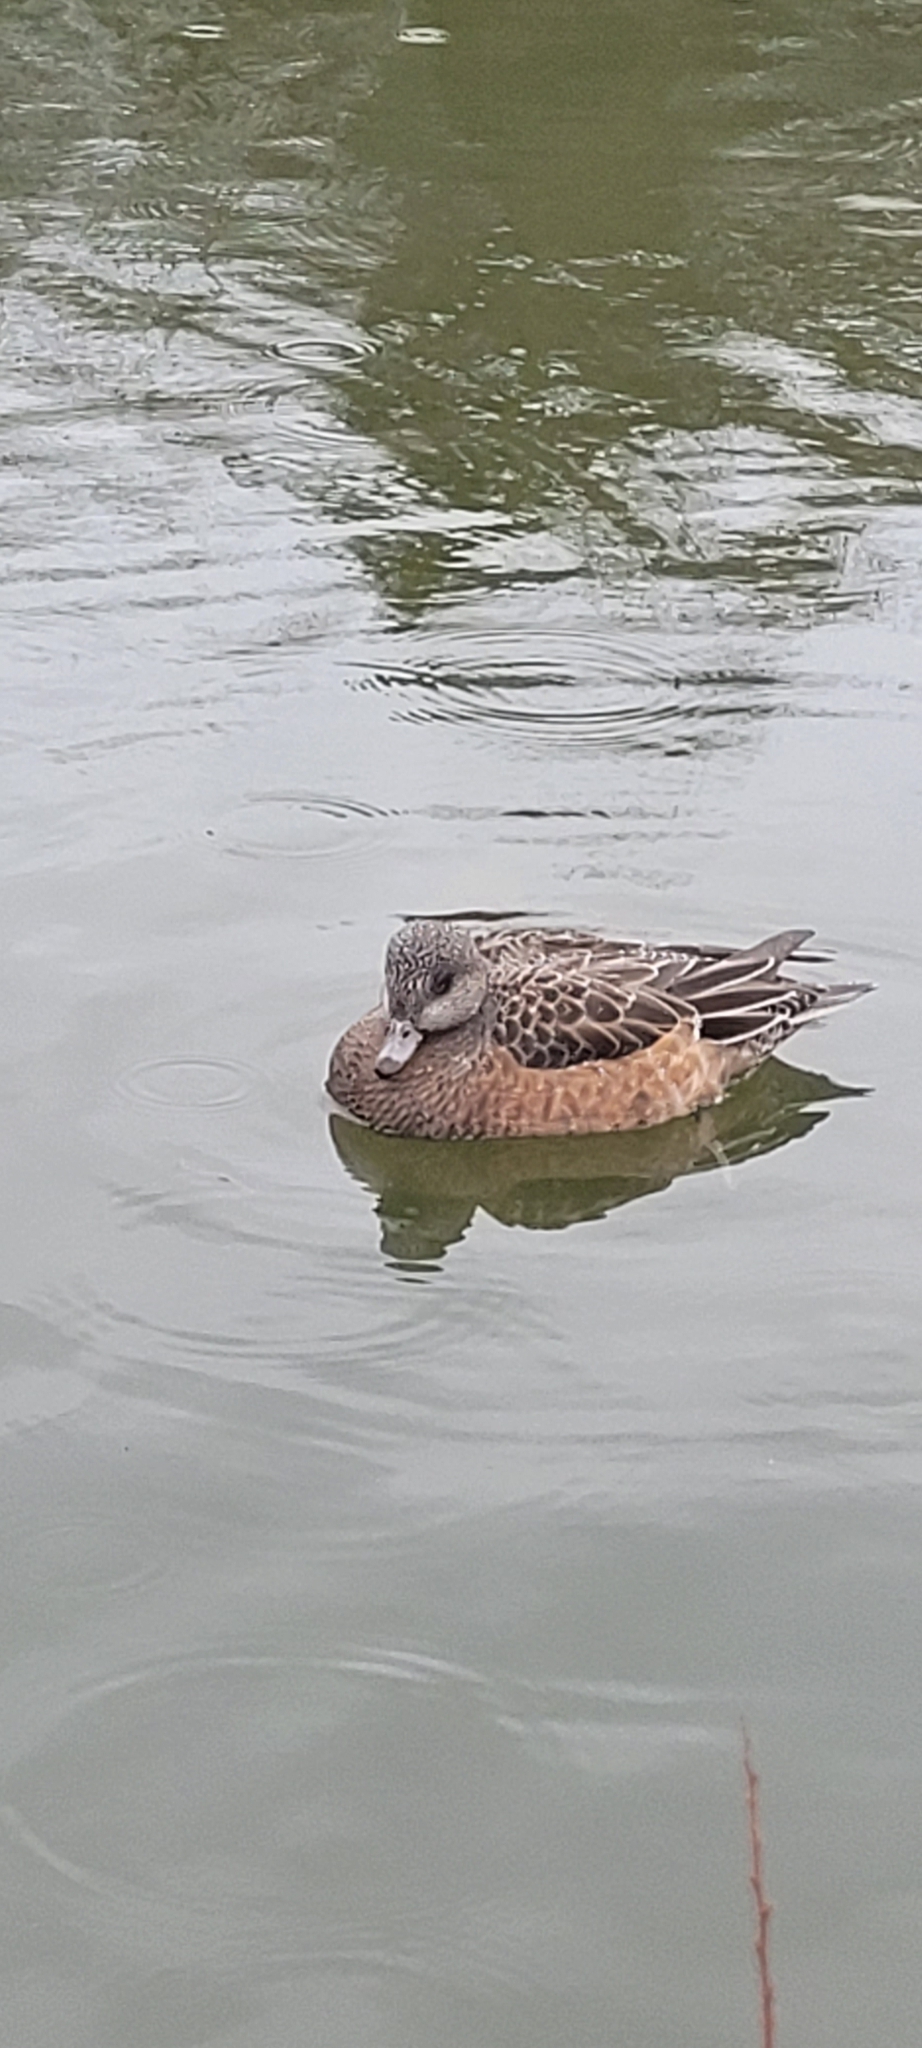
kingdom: Animalia
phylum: Chordata
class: Aves
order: Anseriformes
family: Anatidae
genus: Mareca
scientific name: Mareca americana
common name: American wigeon
